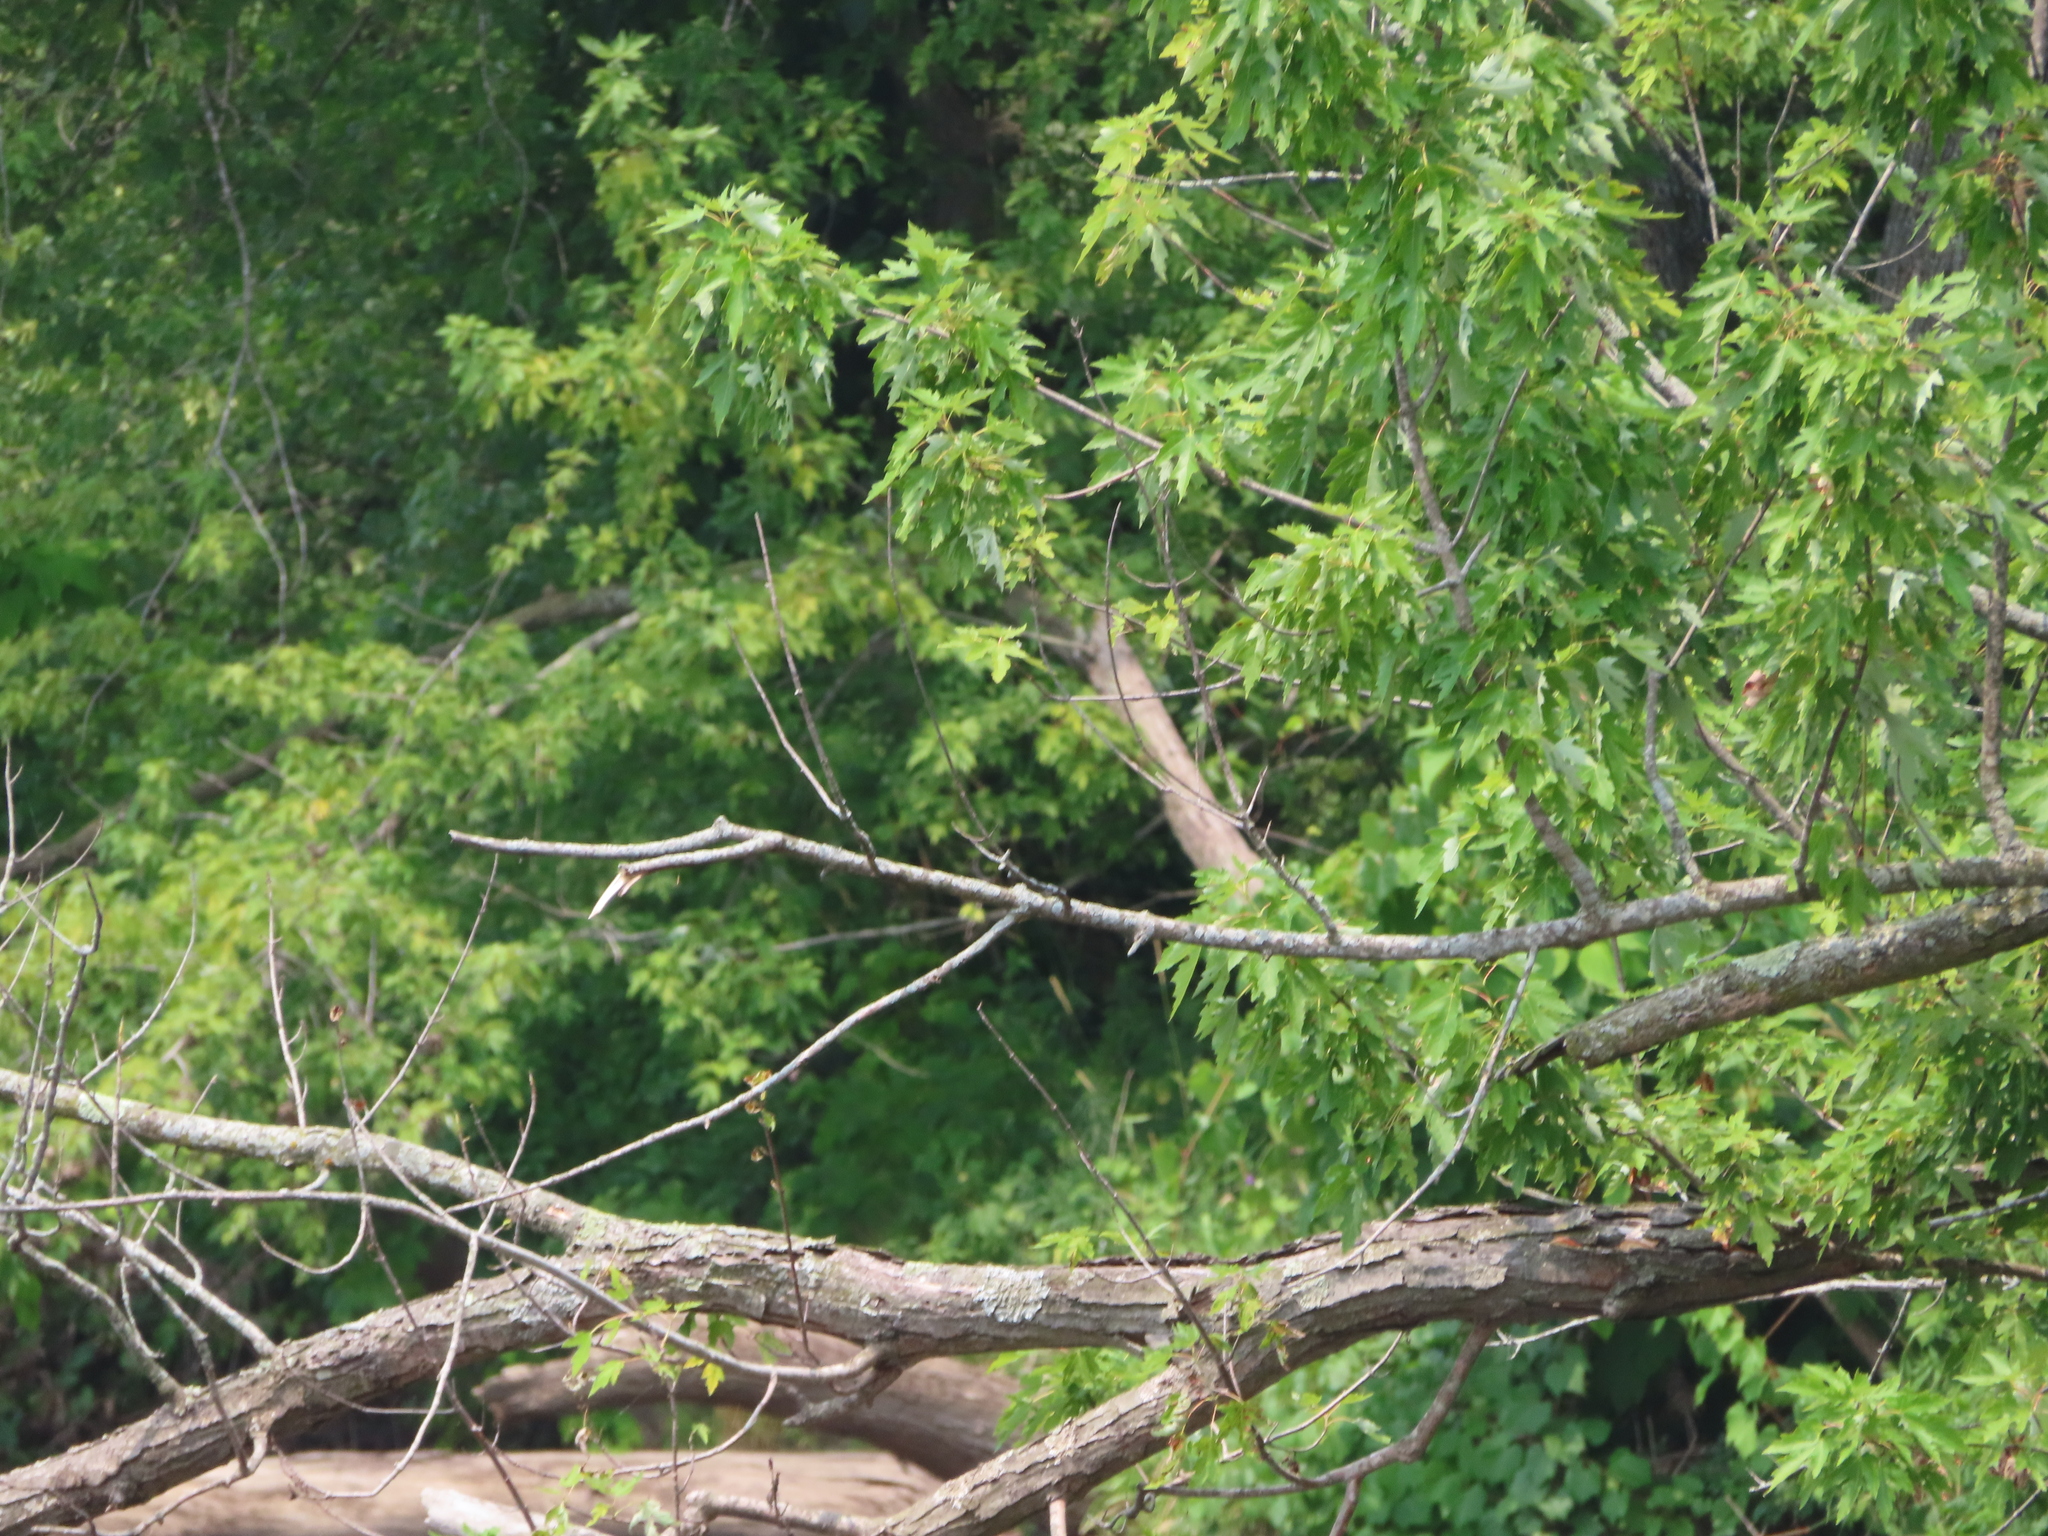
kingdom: Plantae
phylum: Tracheophyta
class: Magnoliopsida
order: Sapindales
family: Sapindaceae
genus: Acer
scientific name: Acer saccharinum
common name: Silver maple
